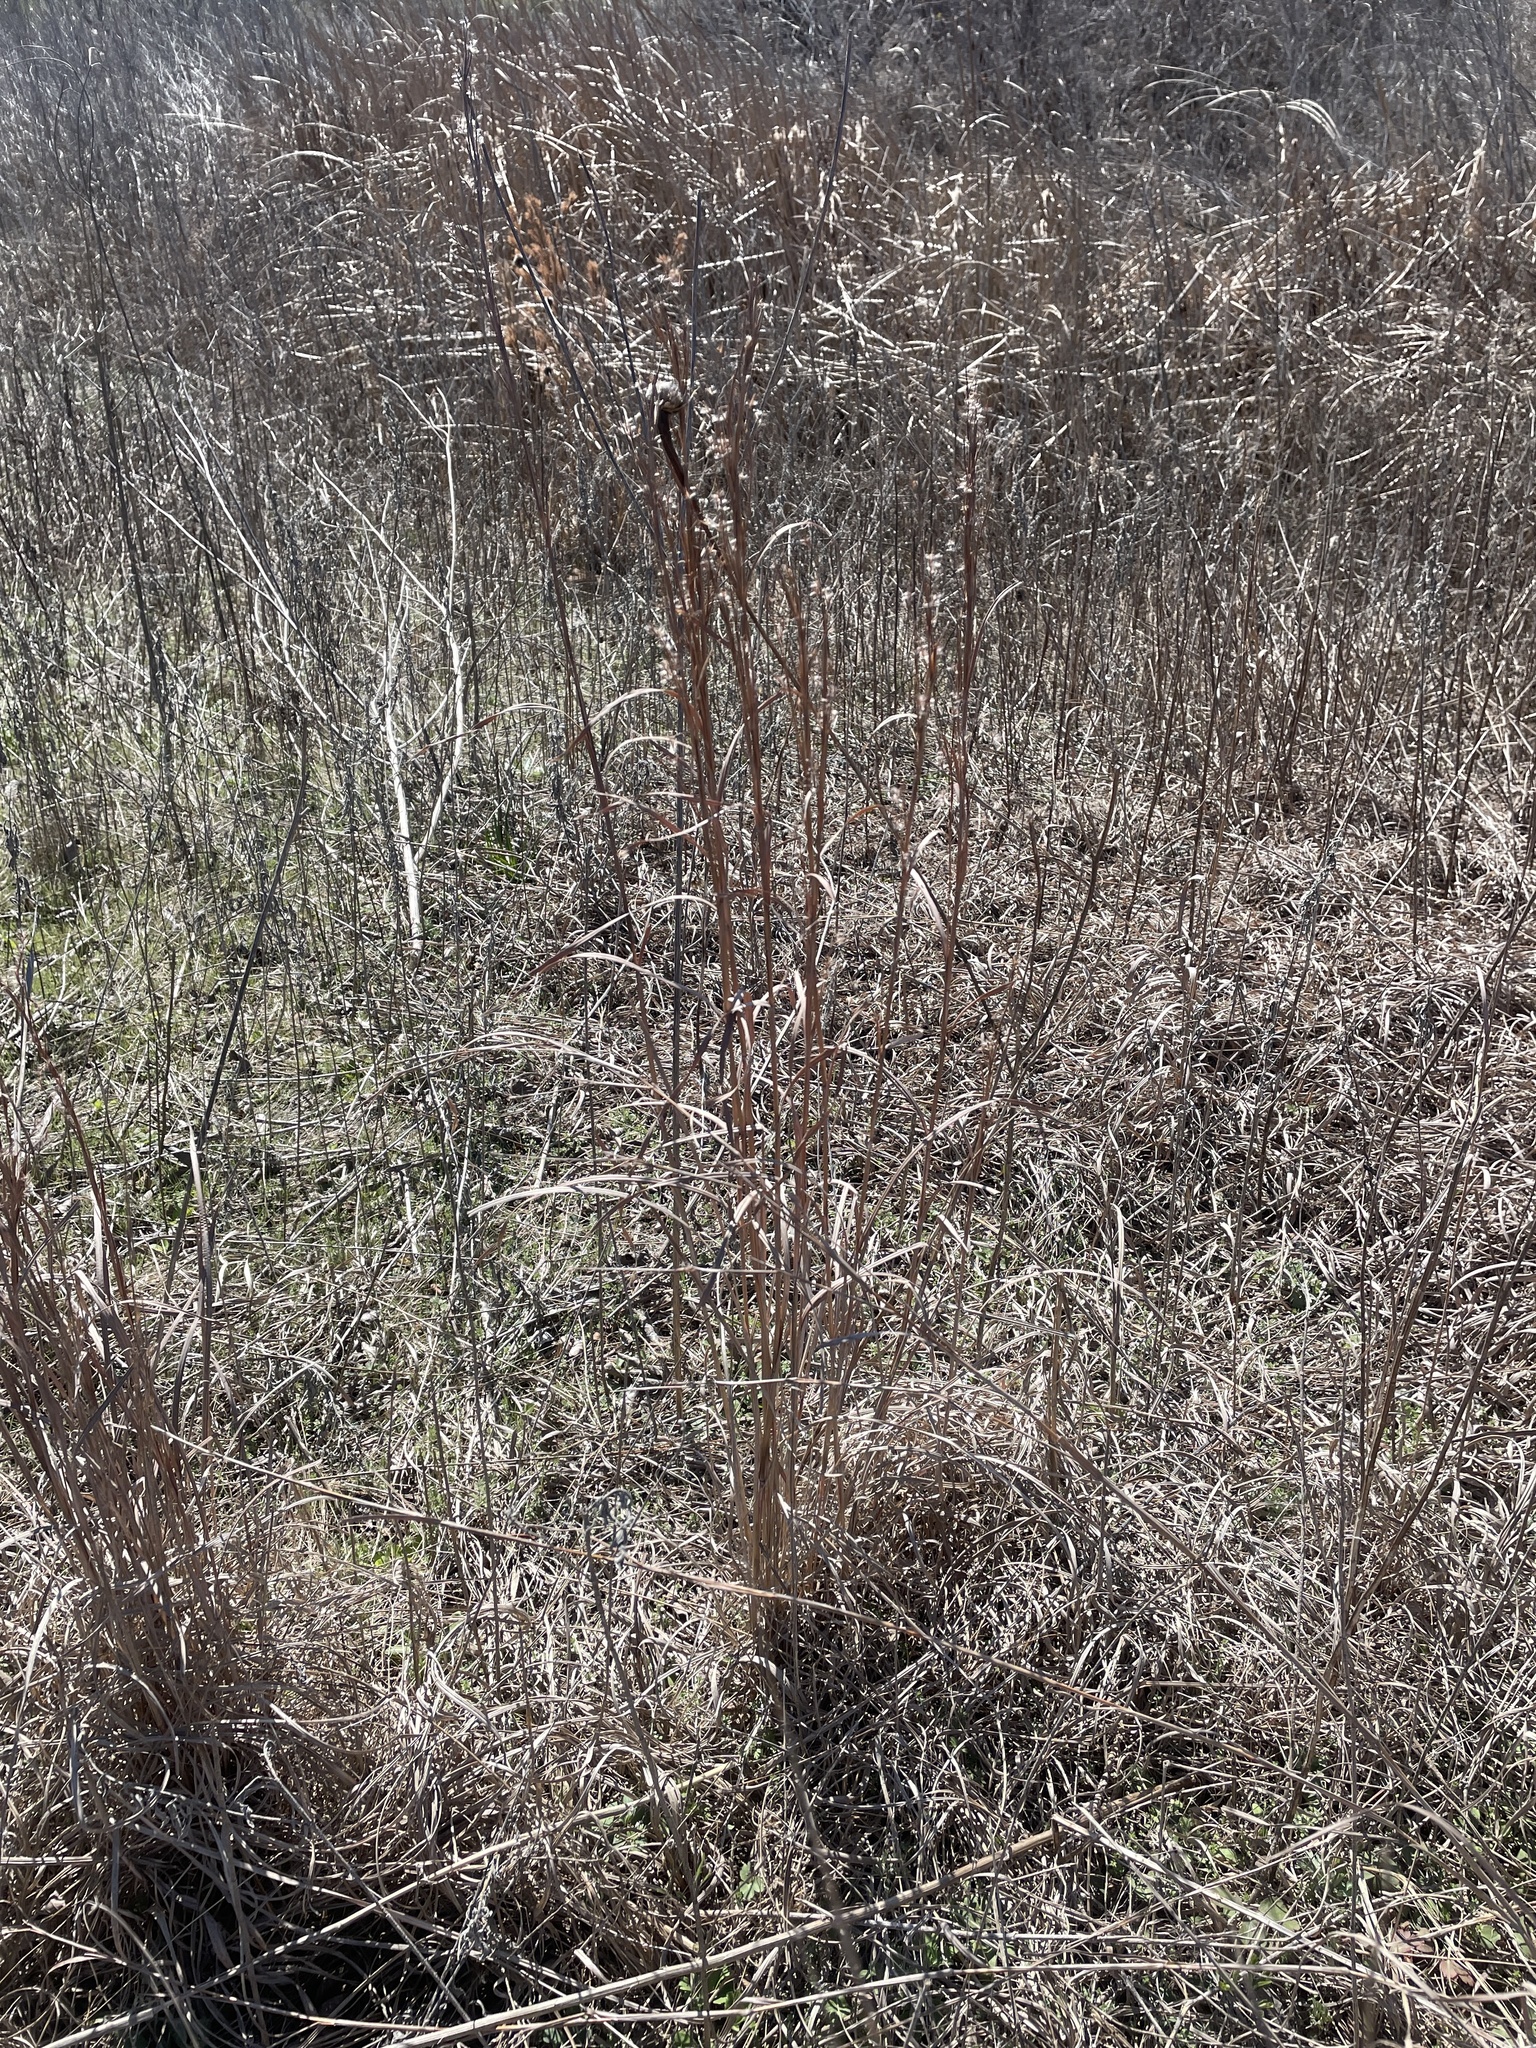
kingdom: Plantae
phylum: Tracheophyta
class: Liliopsida
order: Poales
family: Poaceae
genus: Schizachyrium
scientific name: Schizachyrium scoparium
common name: Little bluestem
